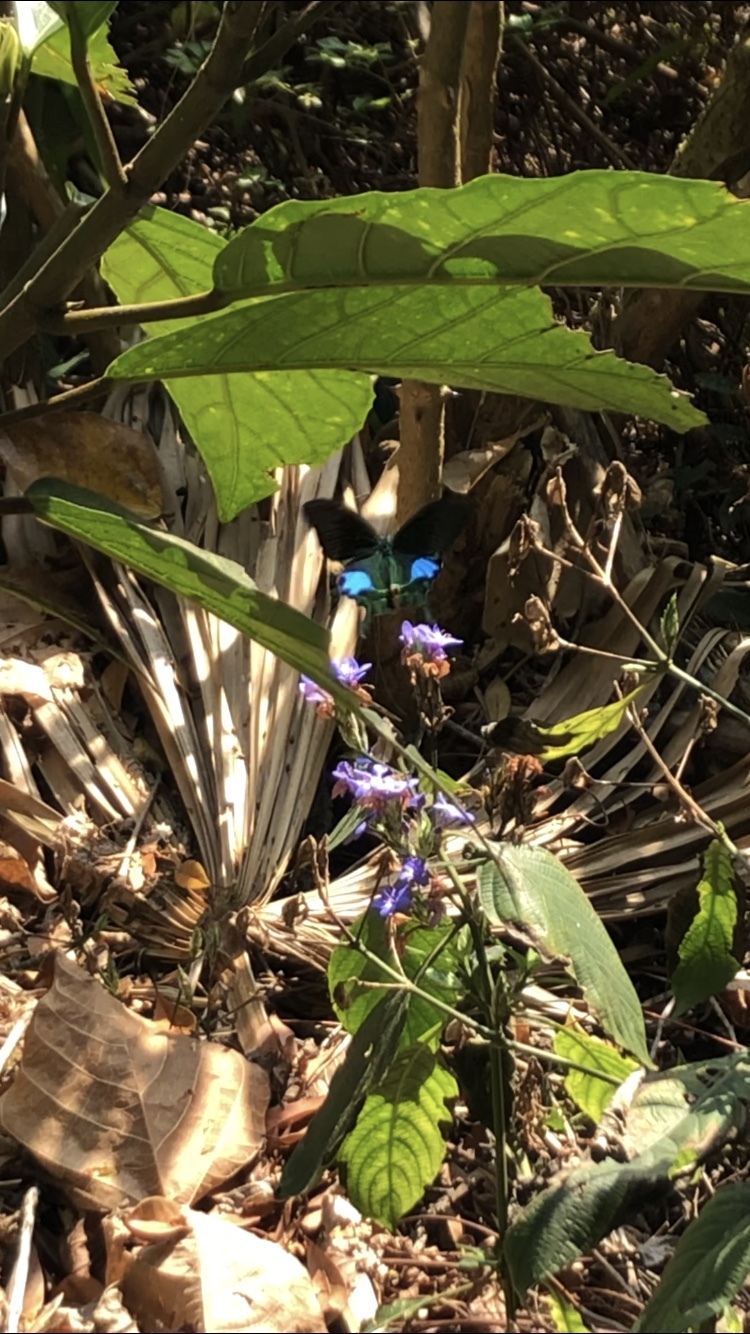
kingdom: Animalia
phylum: Arthropoda
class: Insecta
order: Lepidoptera
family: Papilionidae
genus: Papilio
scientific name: Papilio paris
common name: Paris peacock
